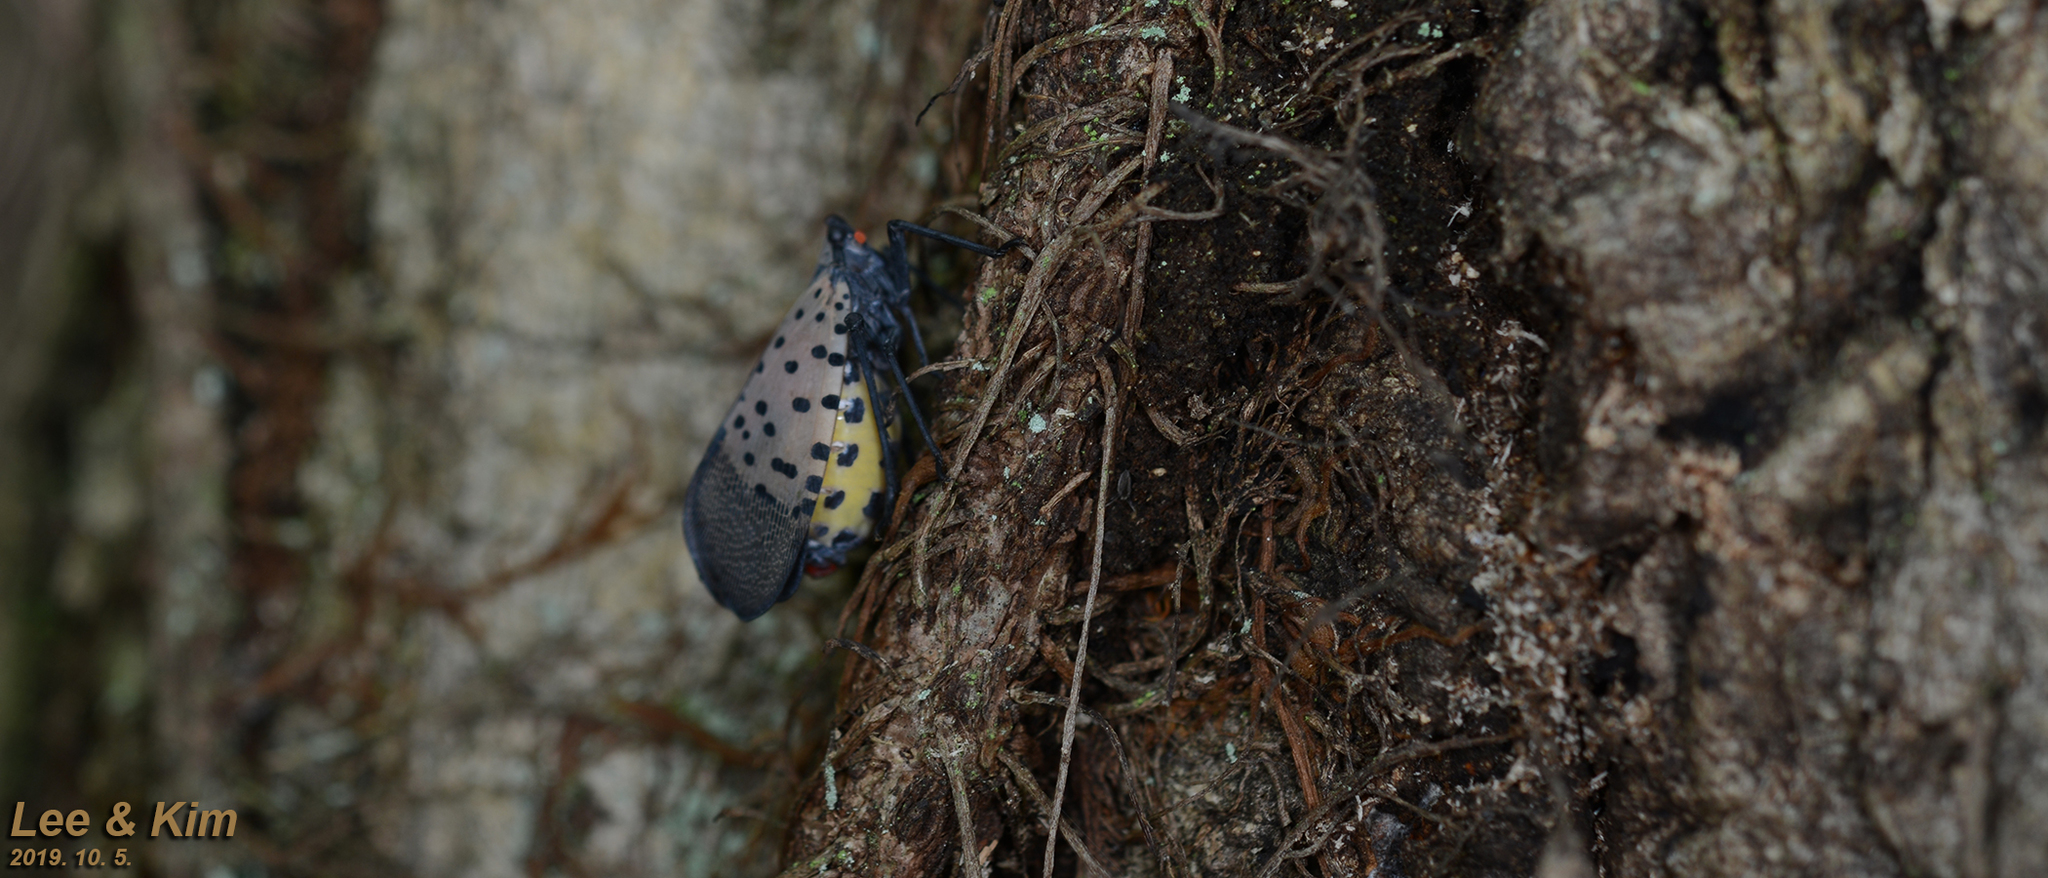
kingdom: Animalia
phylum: Arthropoda
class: Insecta
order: Hemiptera
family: Fulgoridae
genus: Lycorma
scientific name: Lycorma delicatula
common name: Spotted lanternfly
